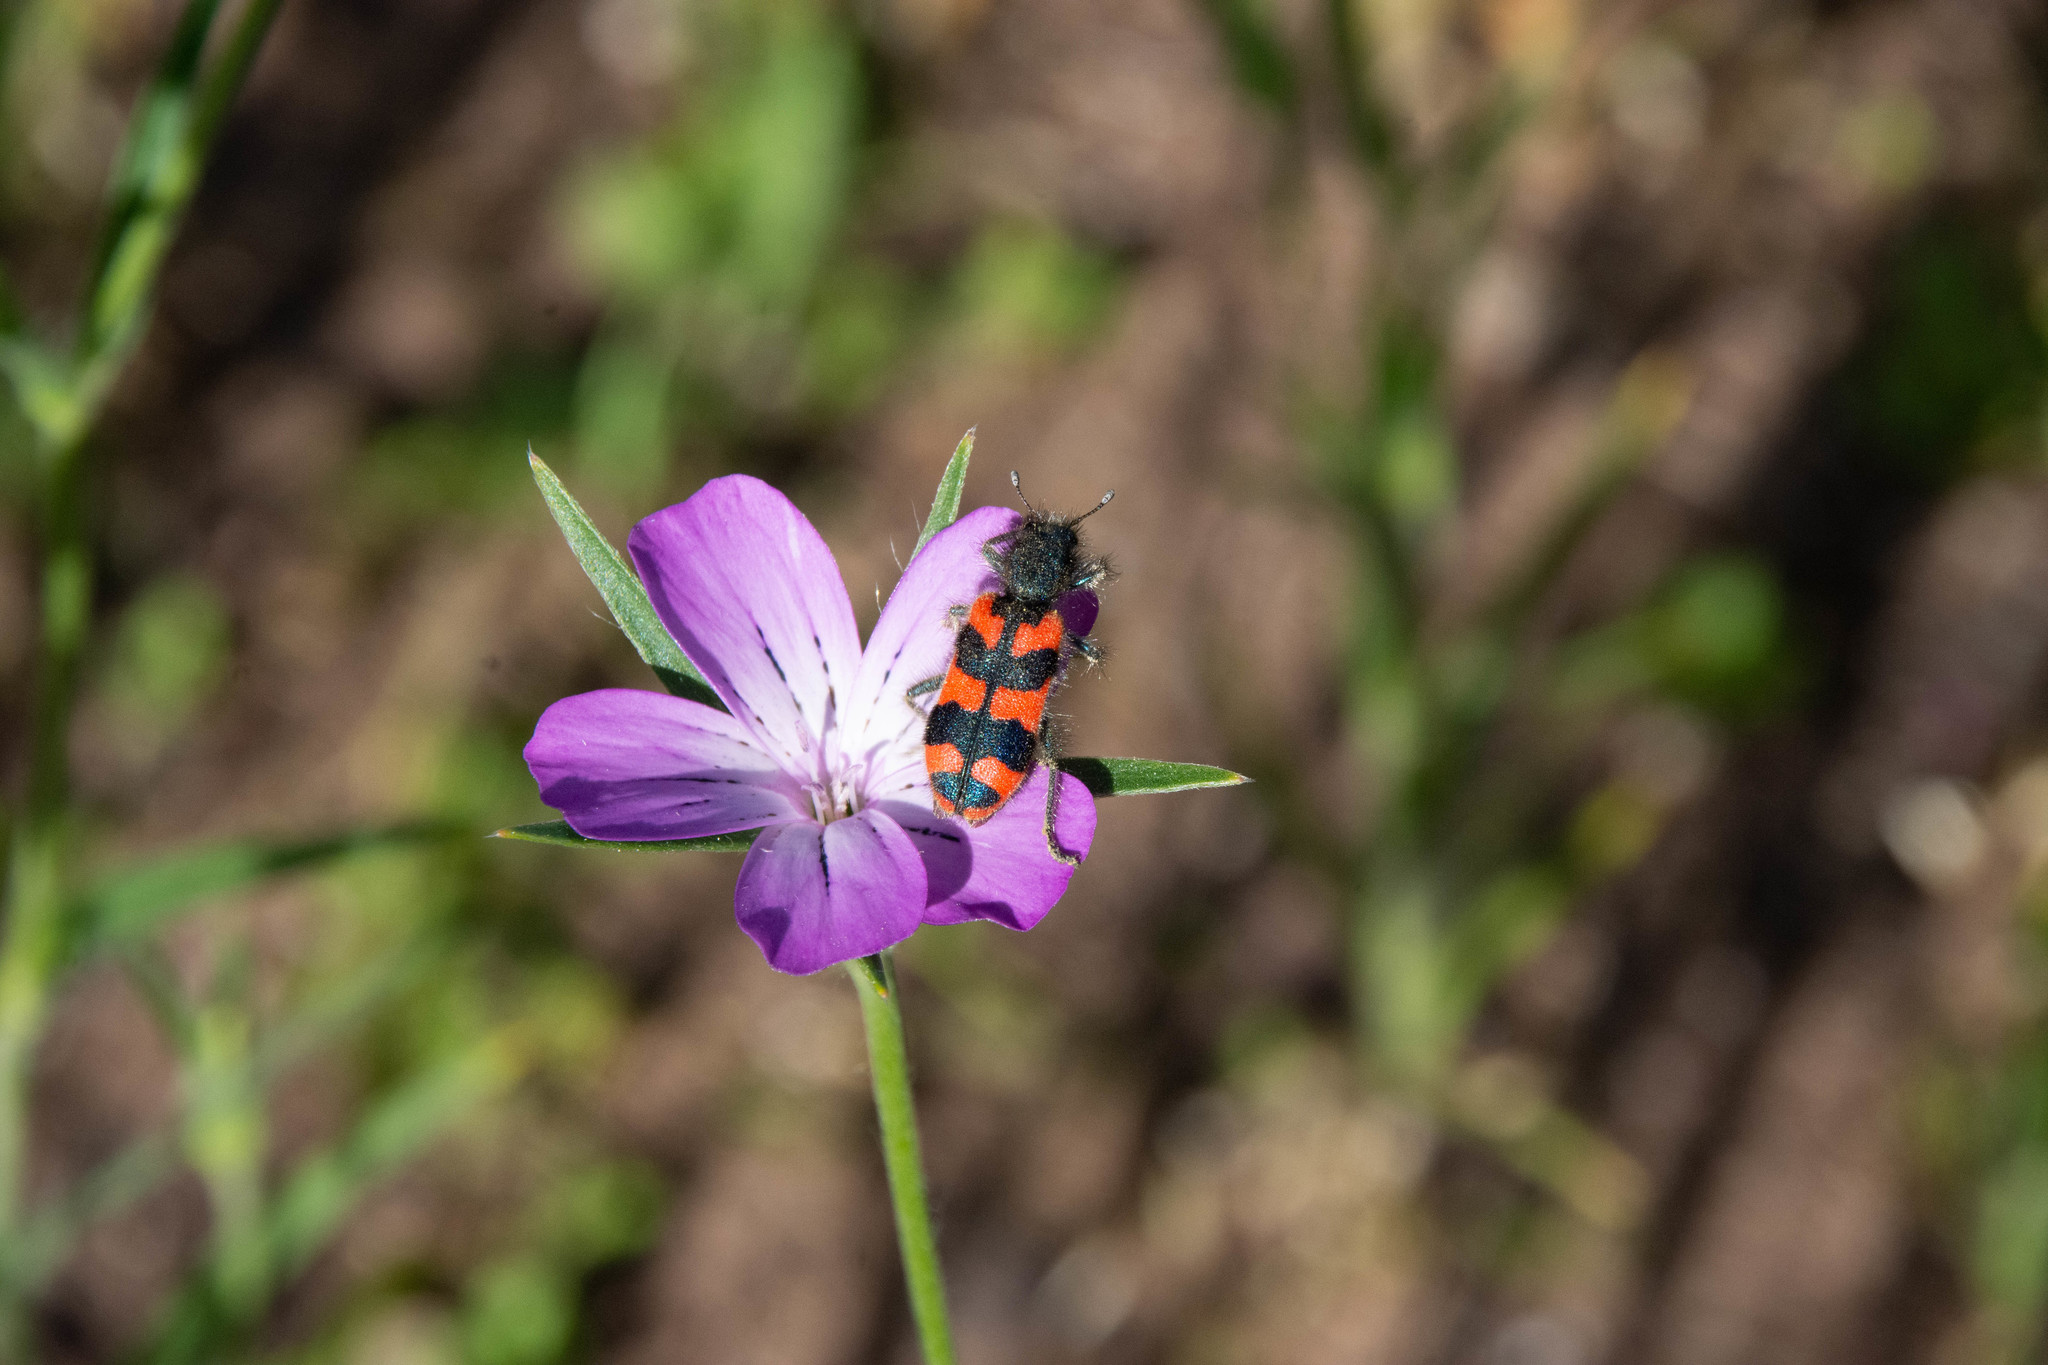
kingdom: Animalia
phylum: Arthropoda
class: Insecta
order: Coleoptera
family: Cleridae
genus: Trichodes
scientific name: Trichodes alvearius
